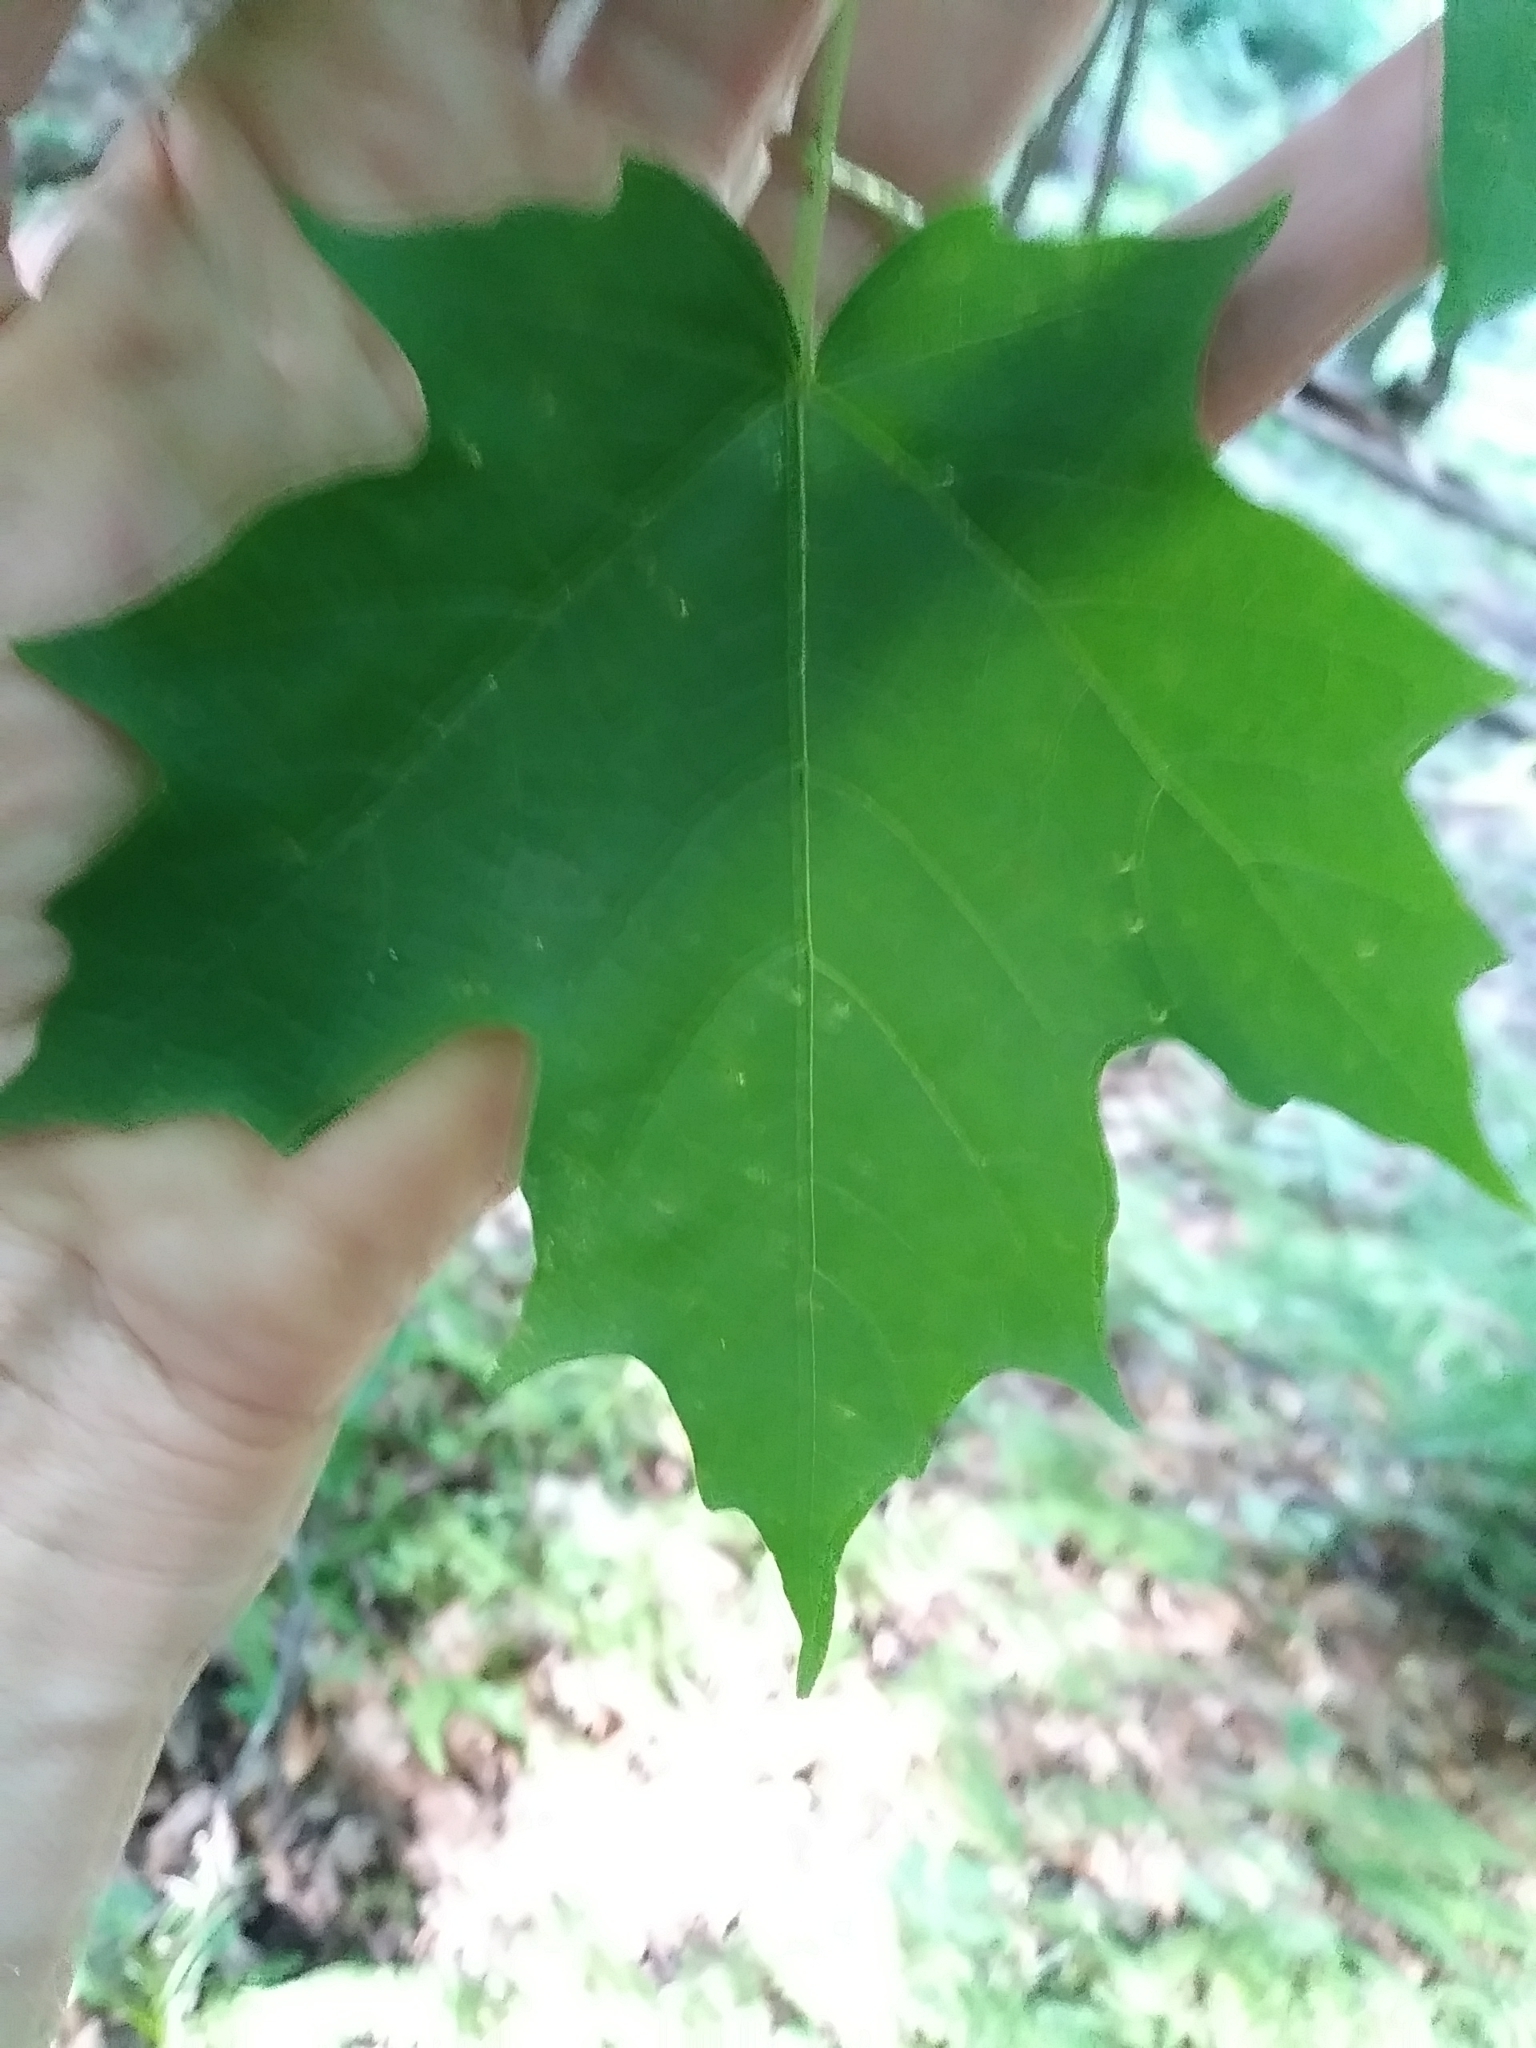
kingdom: Plantae
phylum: Tracheophyta
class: Magnoliopsida
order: Sapindales
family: Sapindaceae
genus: Acer
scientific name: Acer saccharum
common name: Sugar maple
